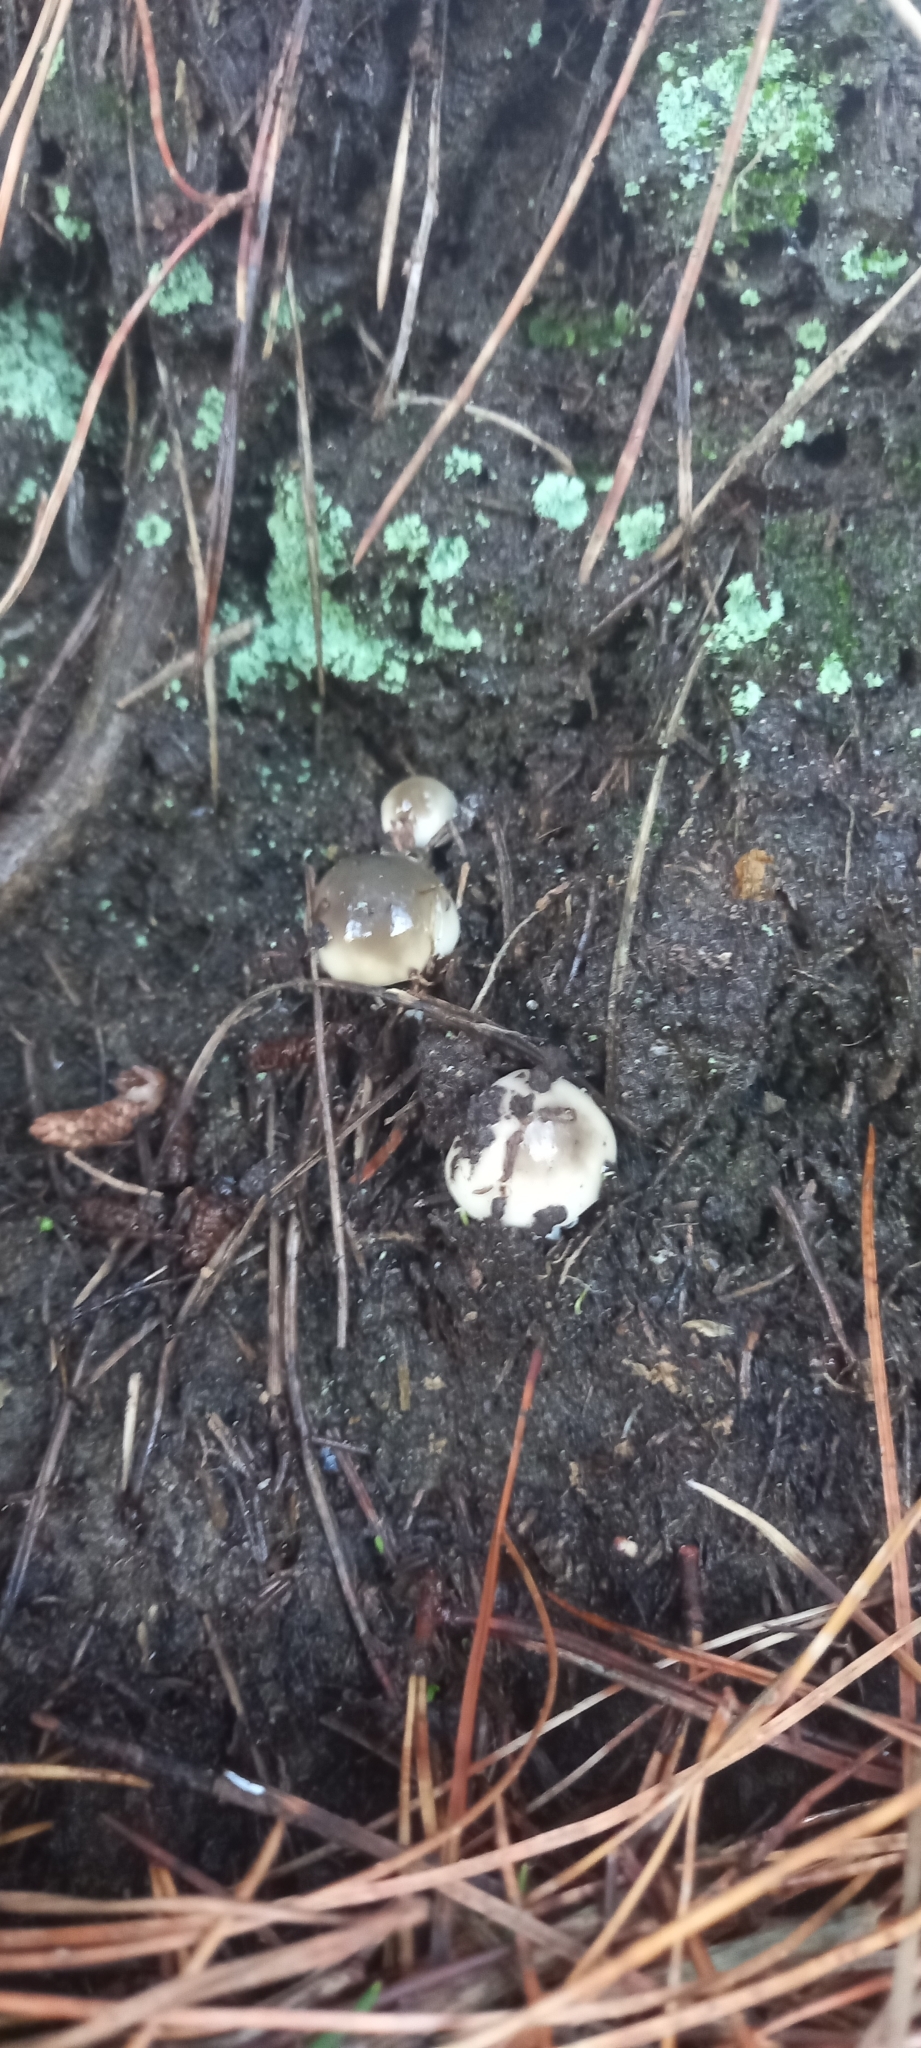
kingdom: Fungi
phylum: Basidiomycota
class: Agaricomycetes
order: Boletales
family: Suillaceae
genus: Suillus
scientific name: Suillus pungens
